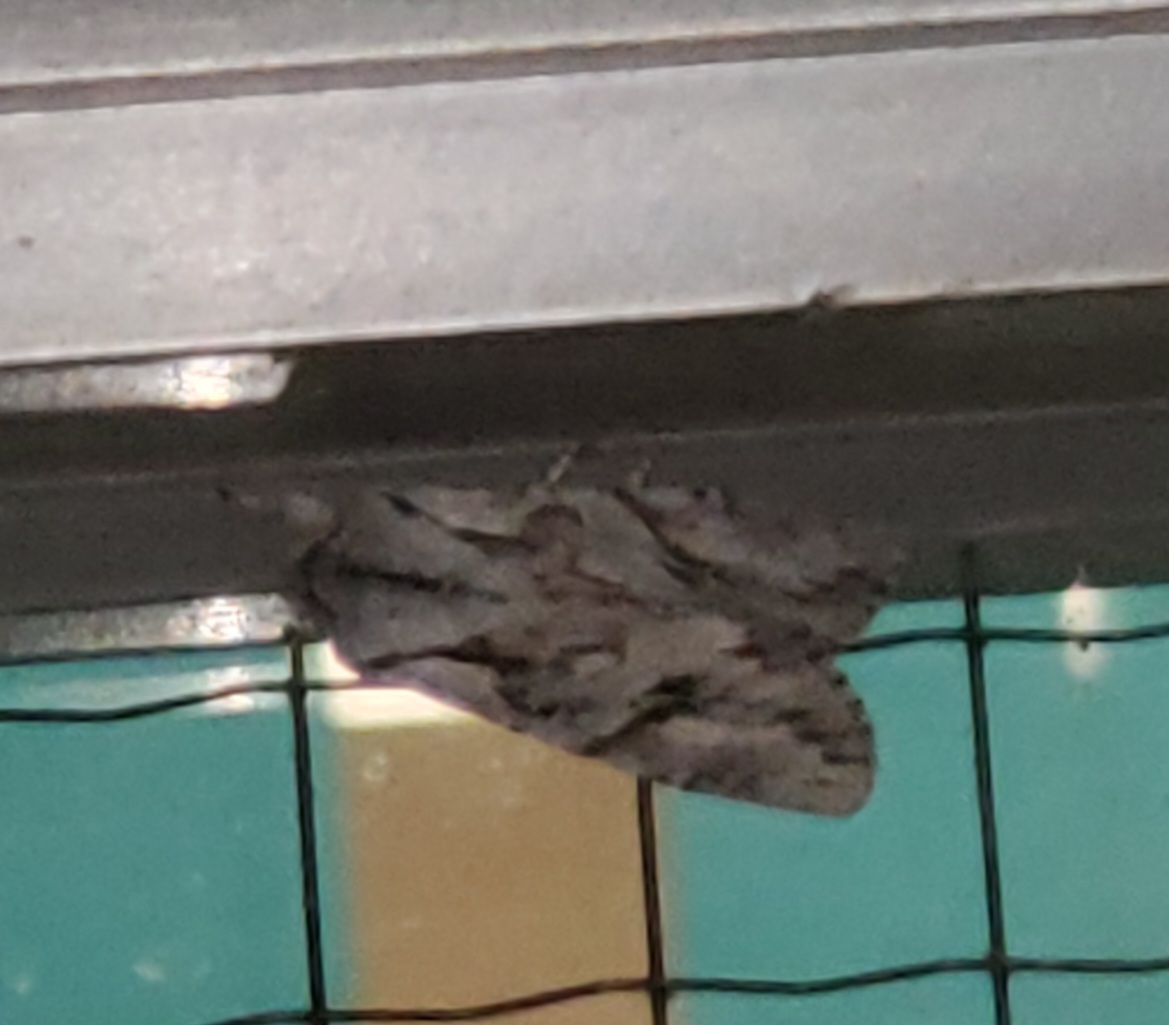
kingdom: Animalia
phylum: Arthropoda
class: Insecta
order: Lepidoptera
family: Noctuidae
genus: Egira
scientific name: Egira crucialis
